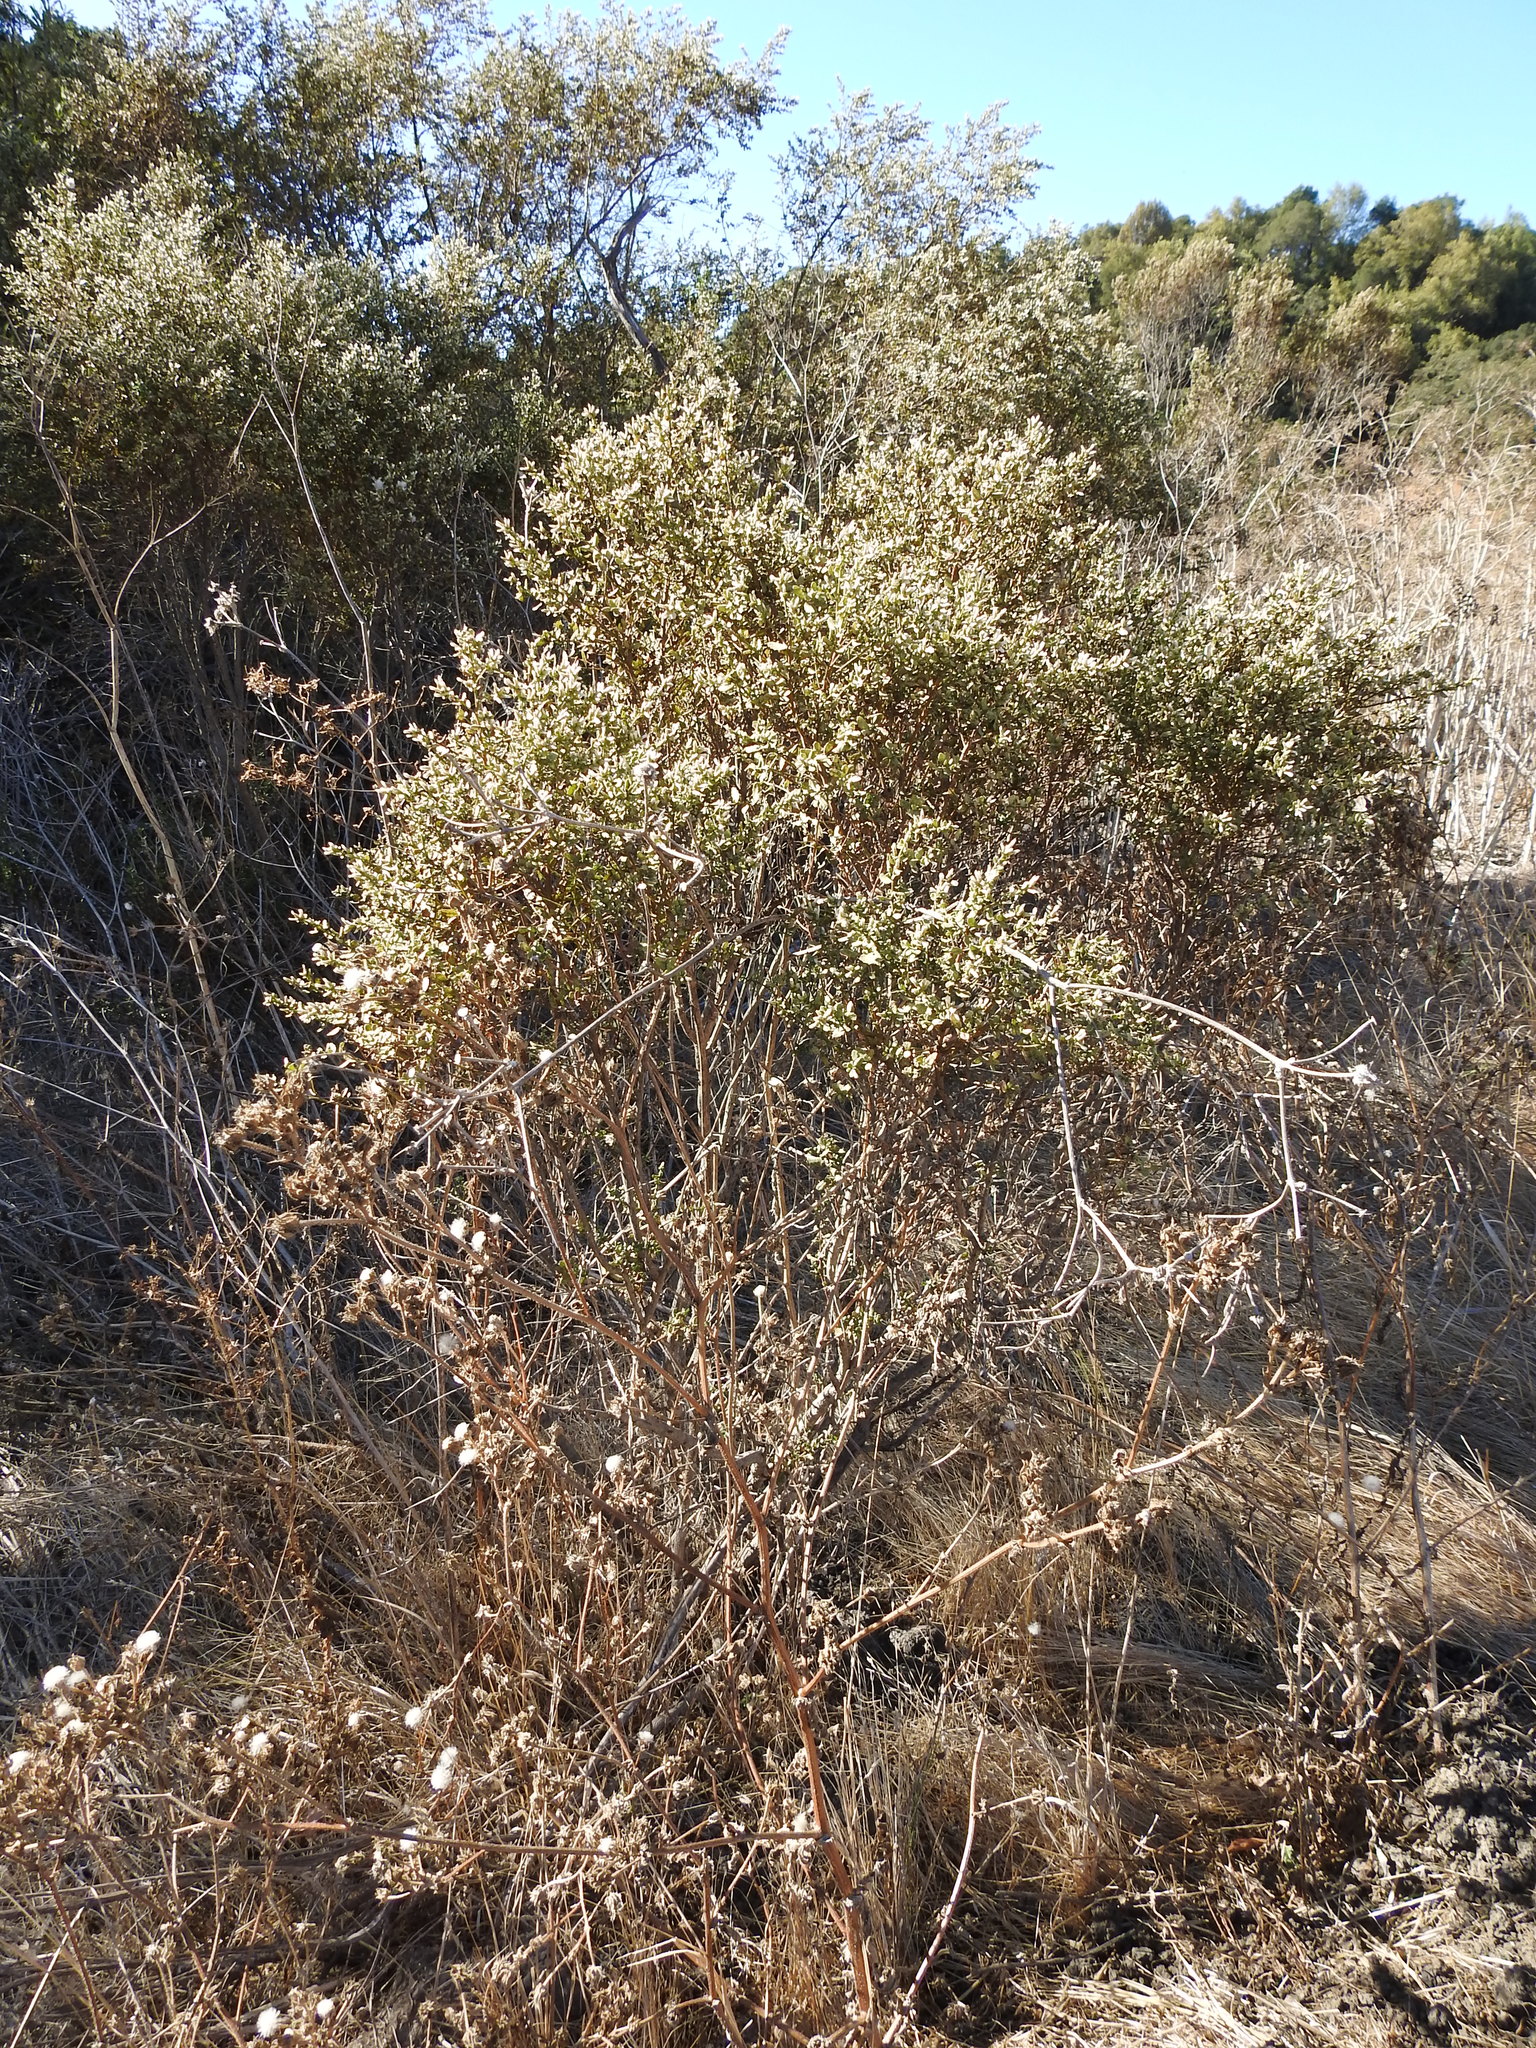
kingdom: Plantae
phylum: Tracheophyta
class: Magnoliopsida
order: Asterales
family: Asteraceae
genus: Baccharis
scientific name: Baccharis pilularis
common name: Coyotebrush
